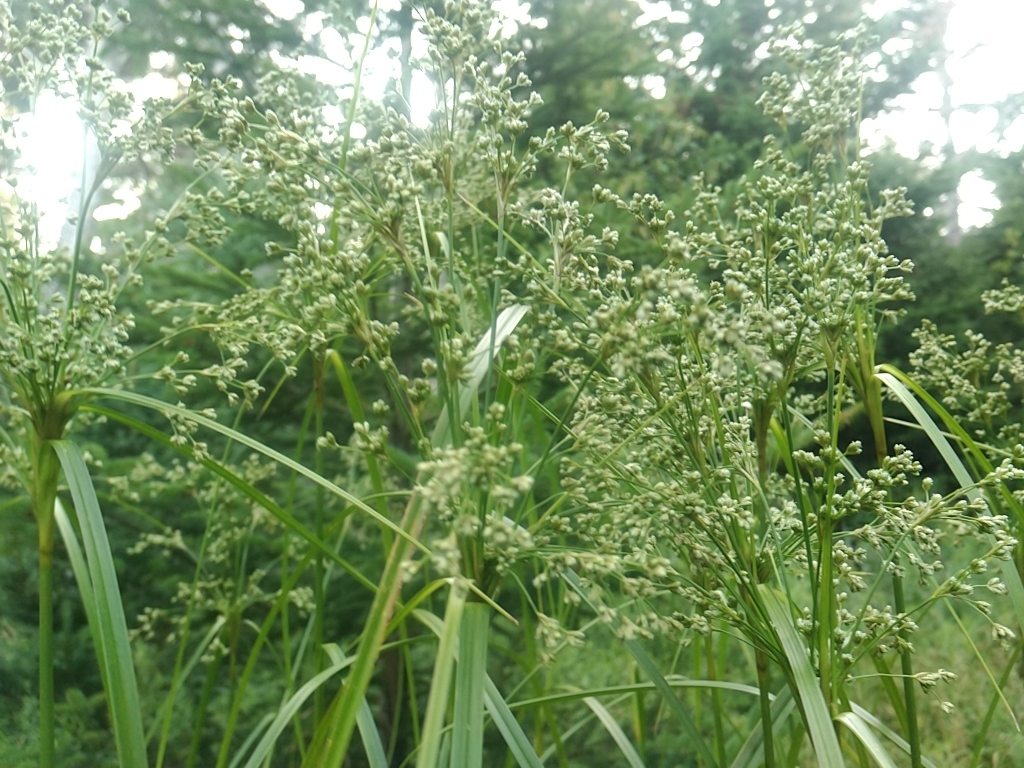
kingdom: Plantae
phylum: Tracheophyta
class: Liliopsida
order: Poales
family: Cyperaceae
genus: Scirpus
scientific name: Scirpus cyperinus
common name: Black-sheathed bulrush
